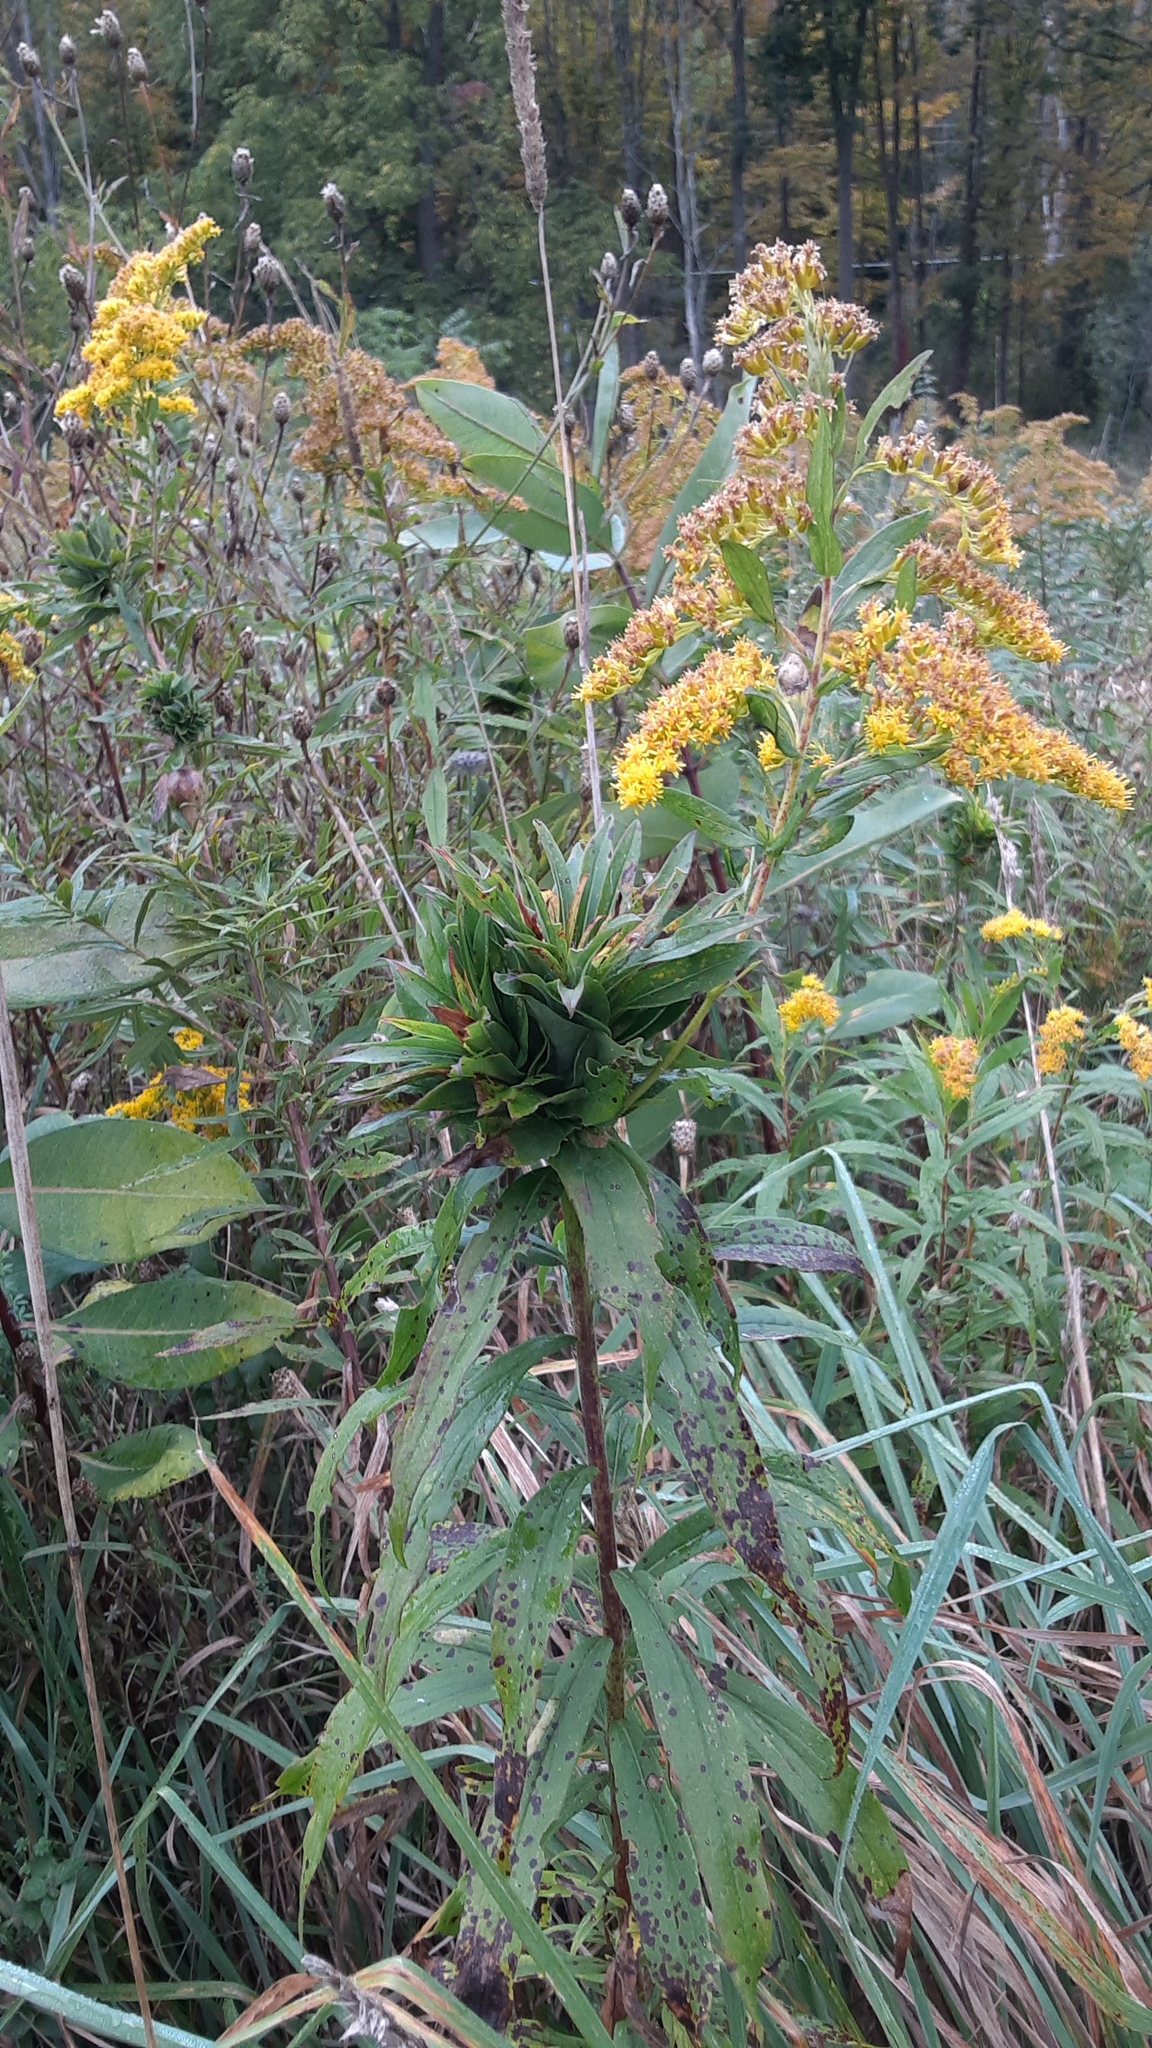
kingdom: Animalia
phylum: Arthropoda
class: Insecta
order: Diptera
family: Cecidomyiidae
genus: Rhopalomyia
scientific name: Rhopalomyia solidaginis
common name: Goldenrod bunch gall midge
